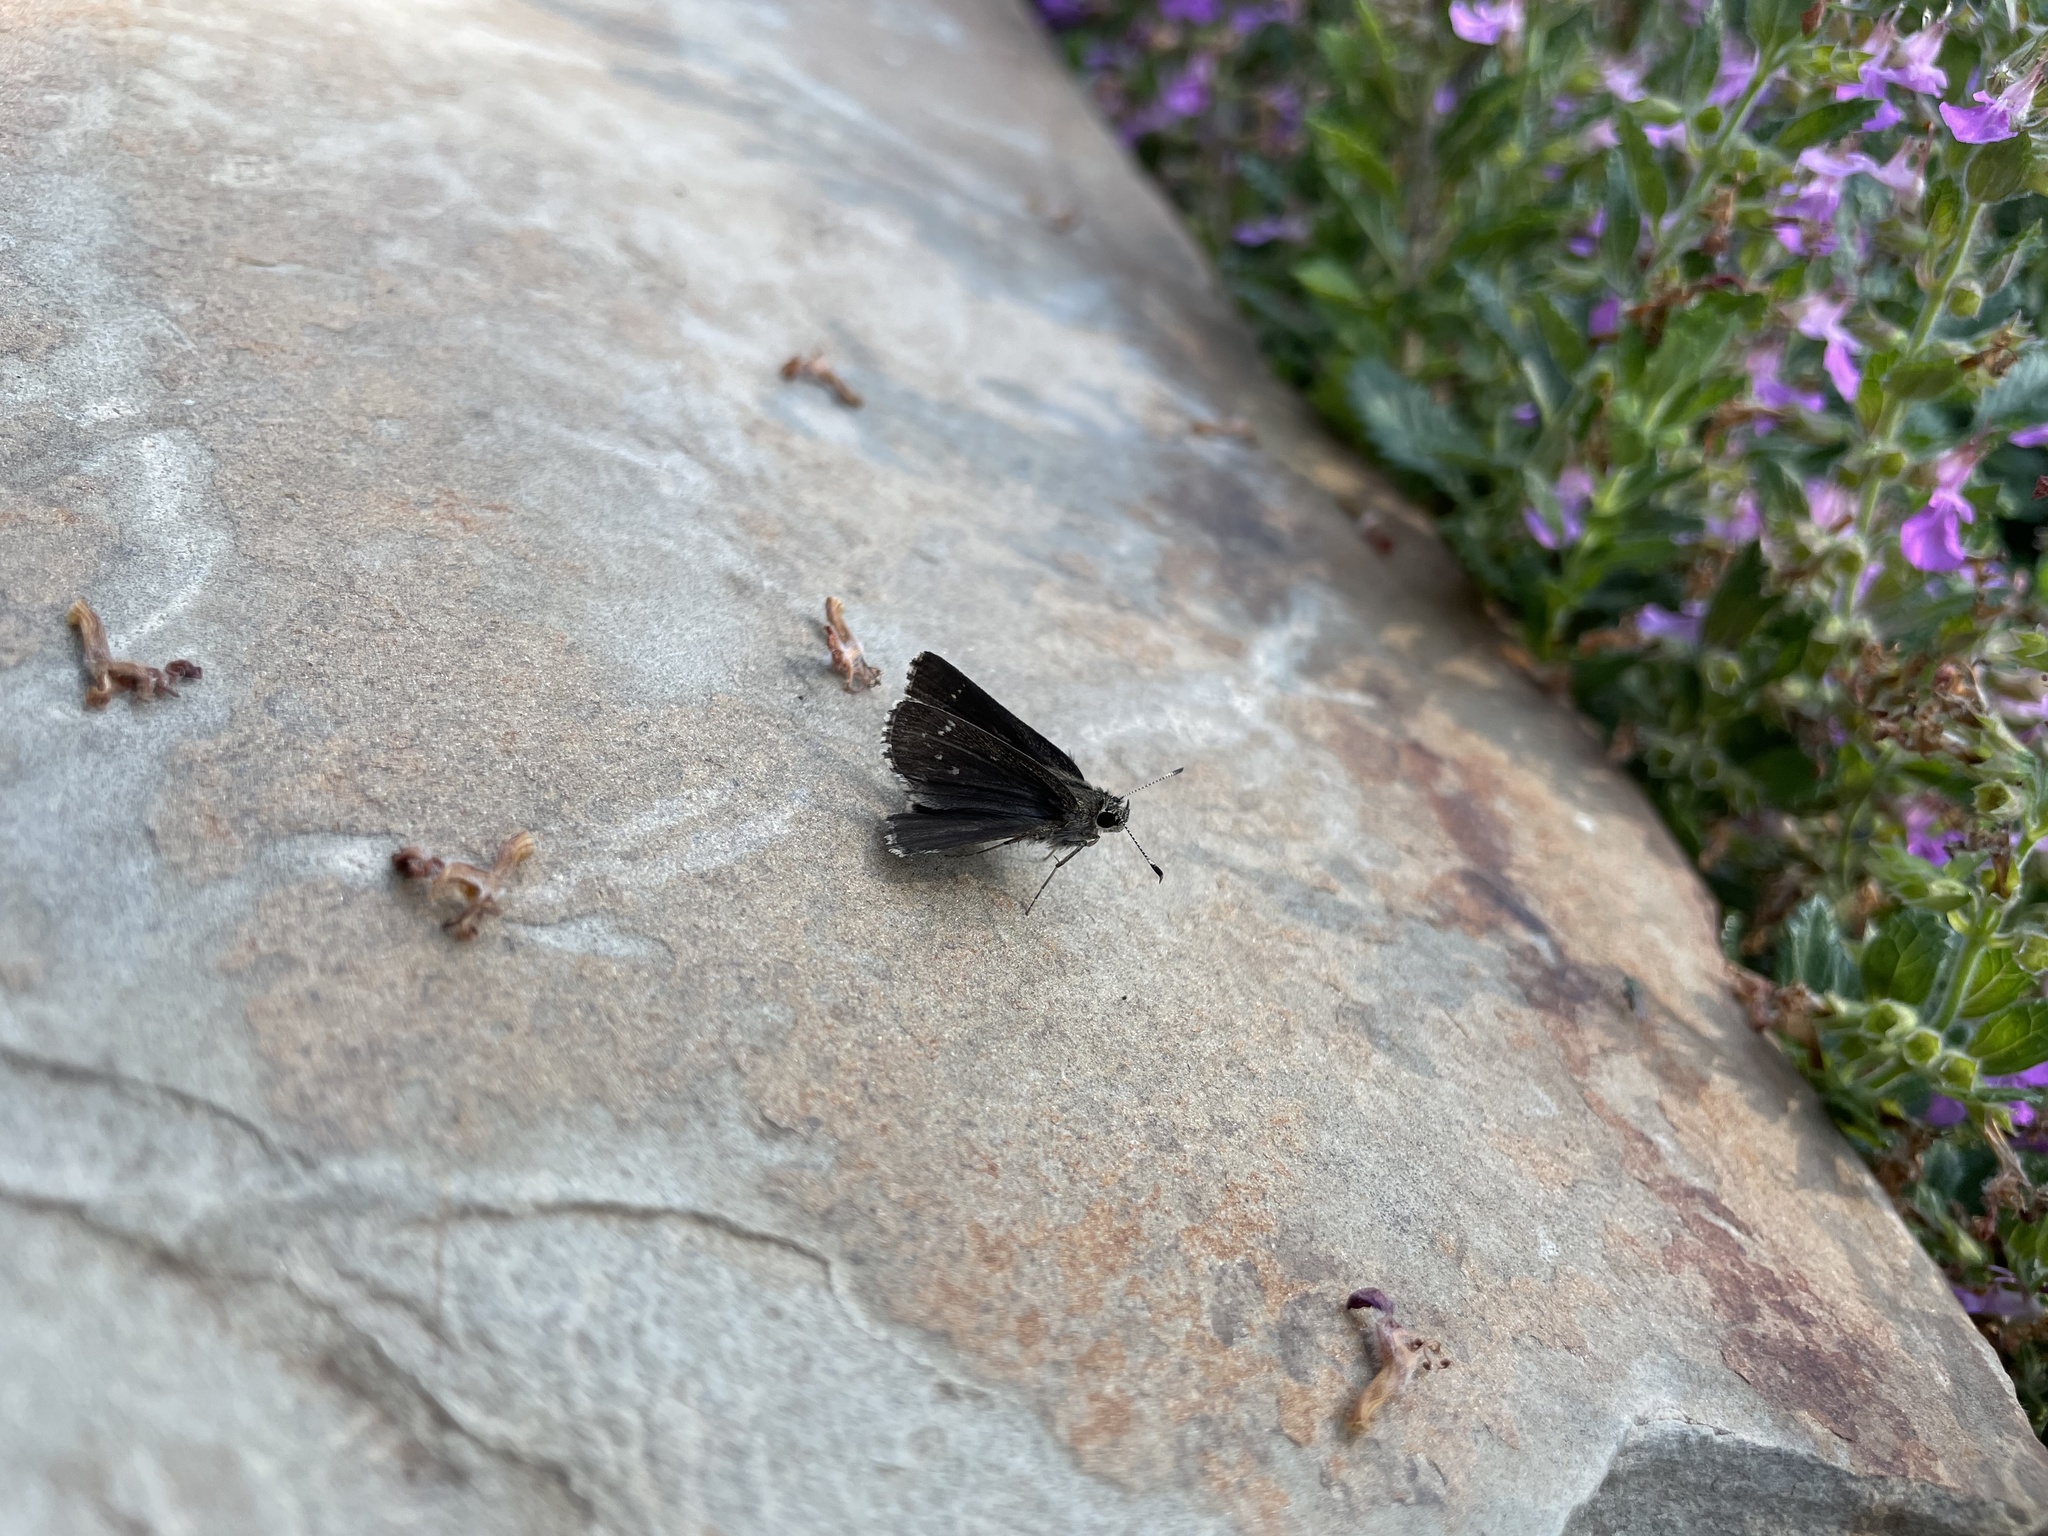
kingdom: Animalia
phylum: Arthropoda
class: Insecta
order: Lepidoptera
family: Hesperiidae
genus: Mastor
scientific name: Mastor celia
